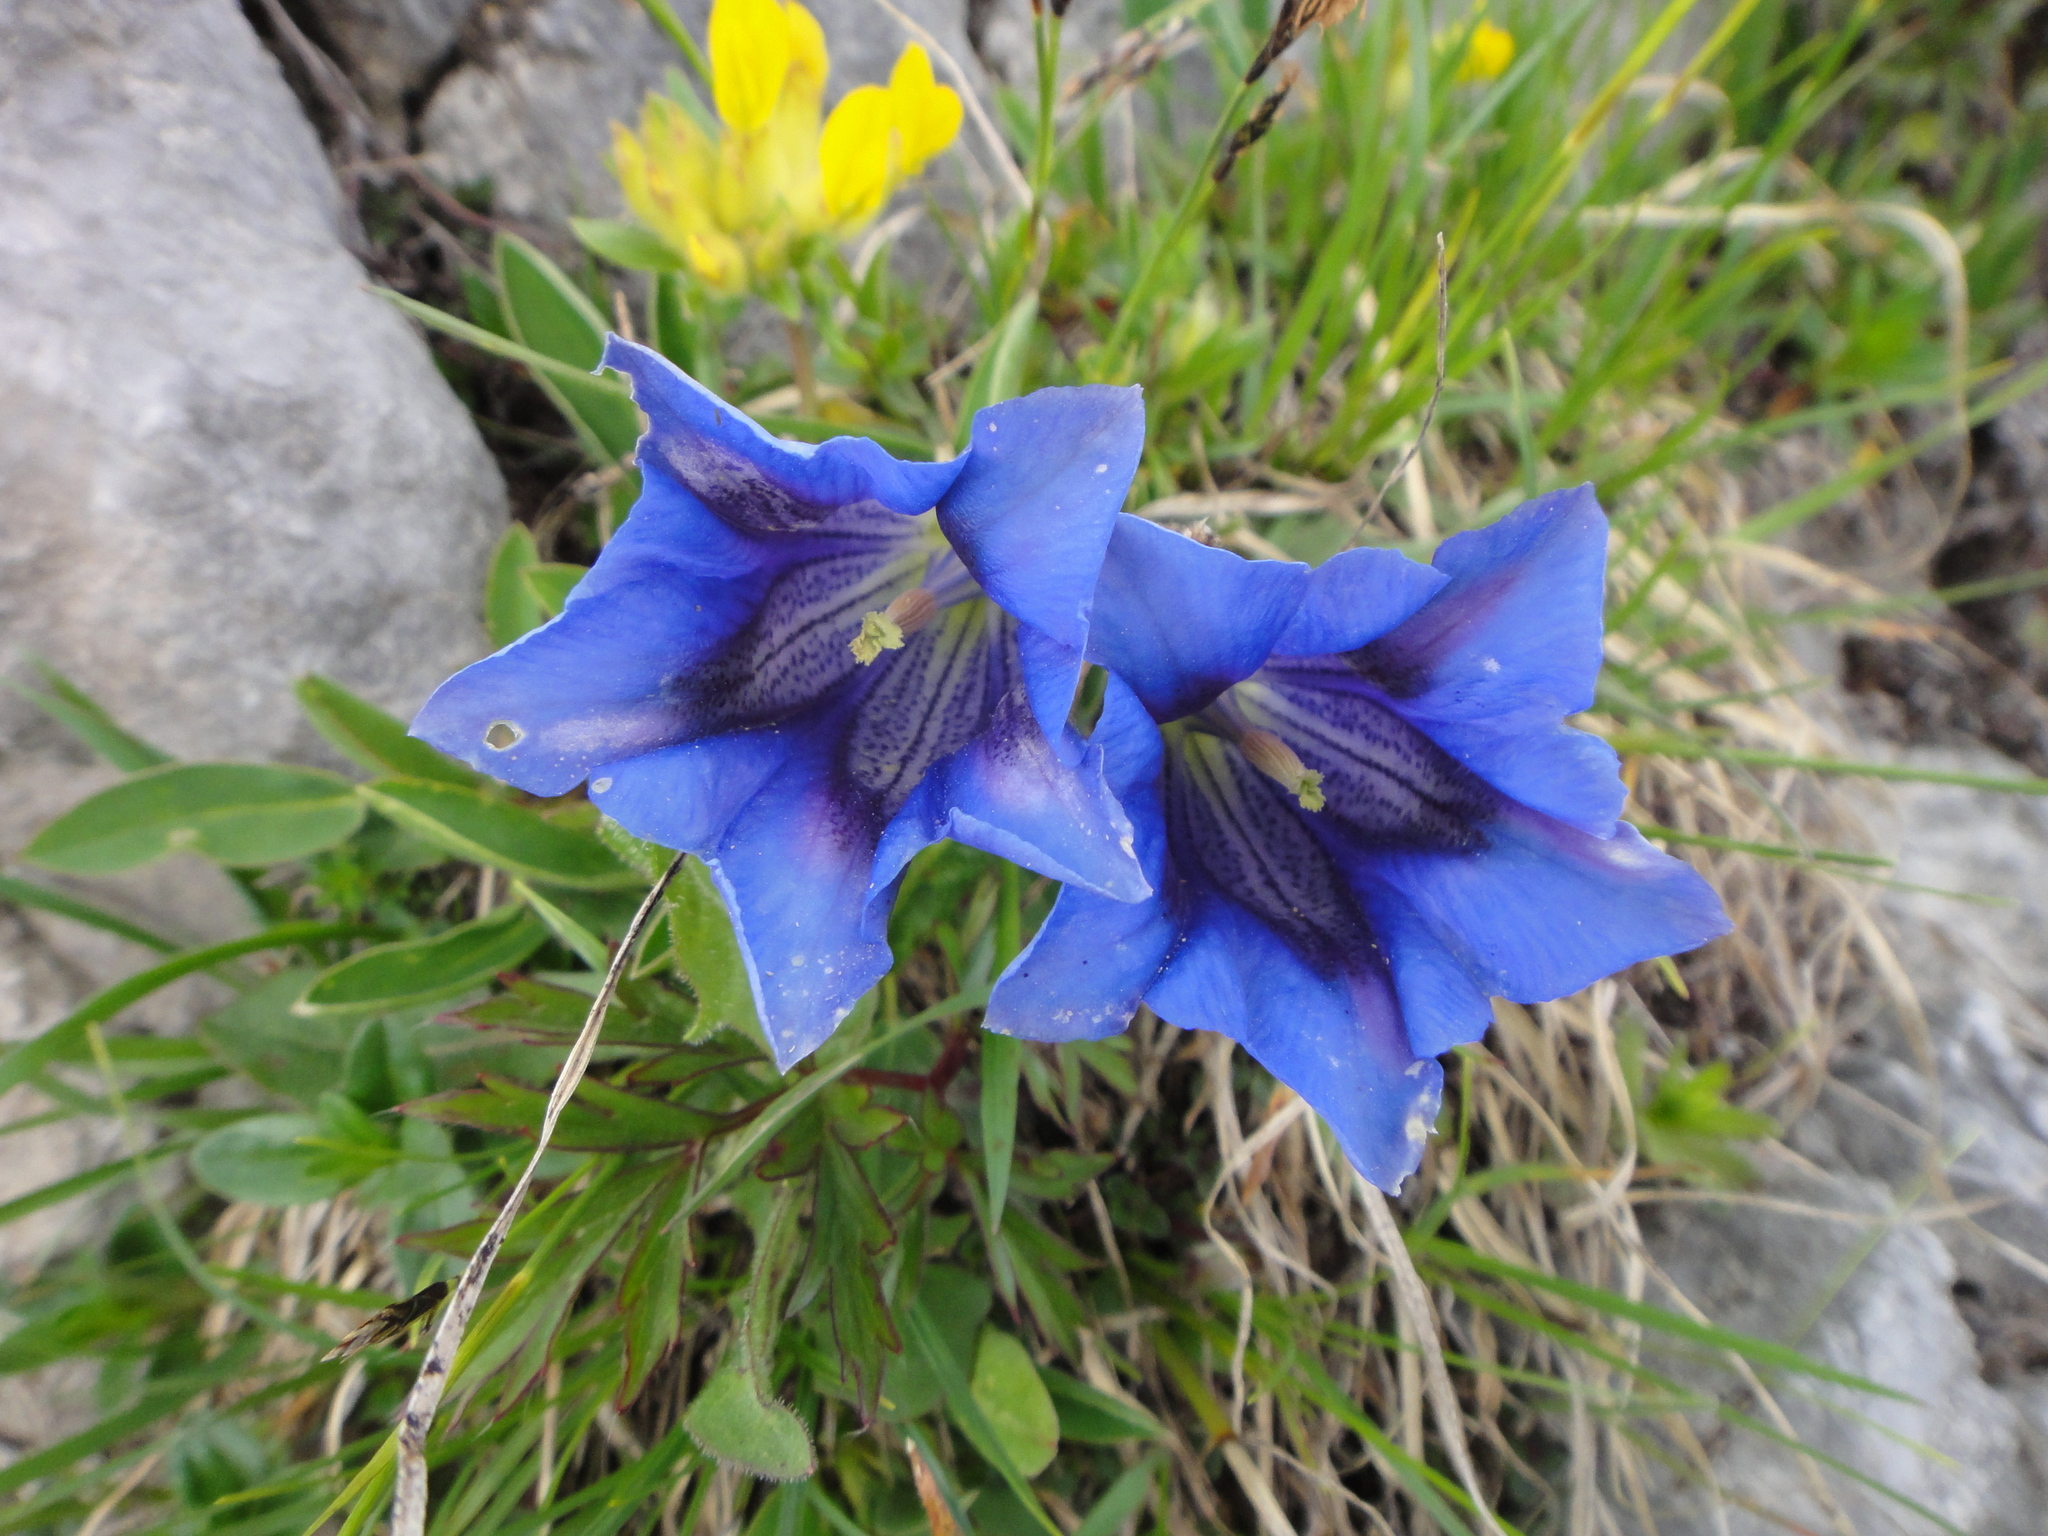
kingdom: Plantae
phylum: Tracheophyta
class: Magnoliopsida
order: Gentianales
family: Gentianaceae
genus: Gentiana
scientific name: Gentiana clusii
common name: Trumpet gentian
